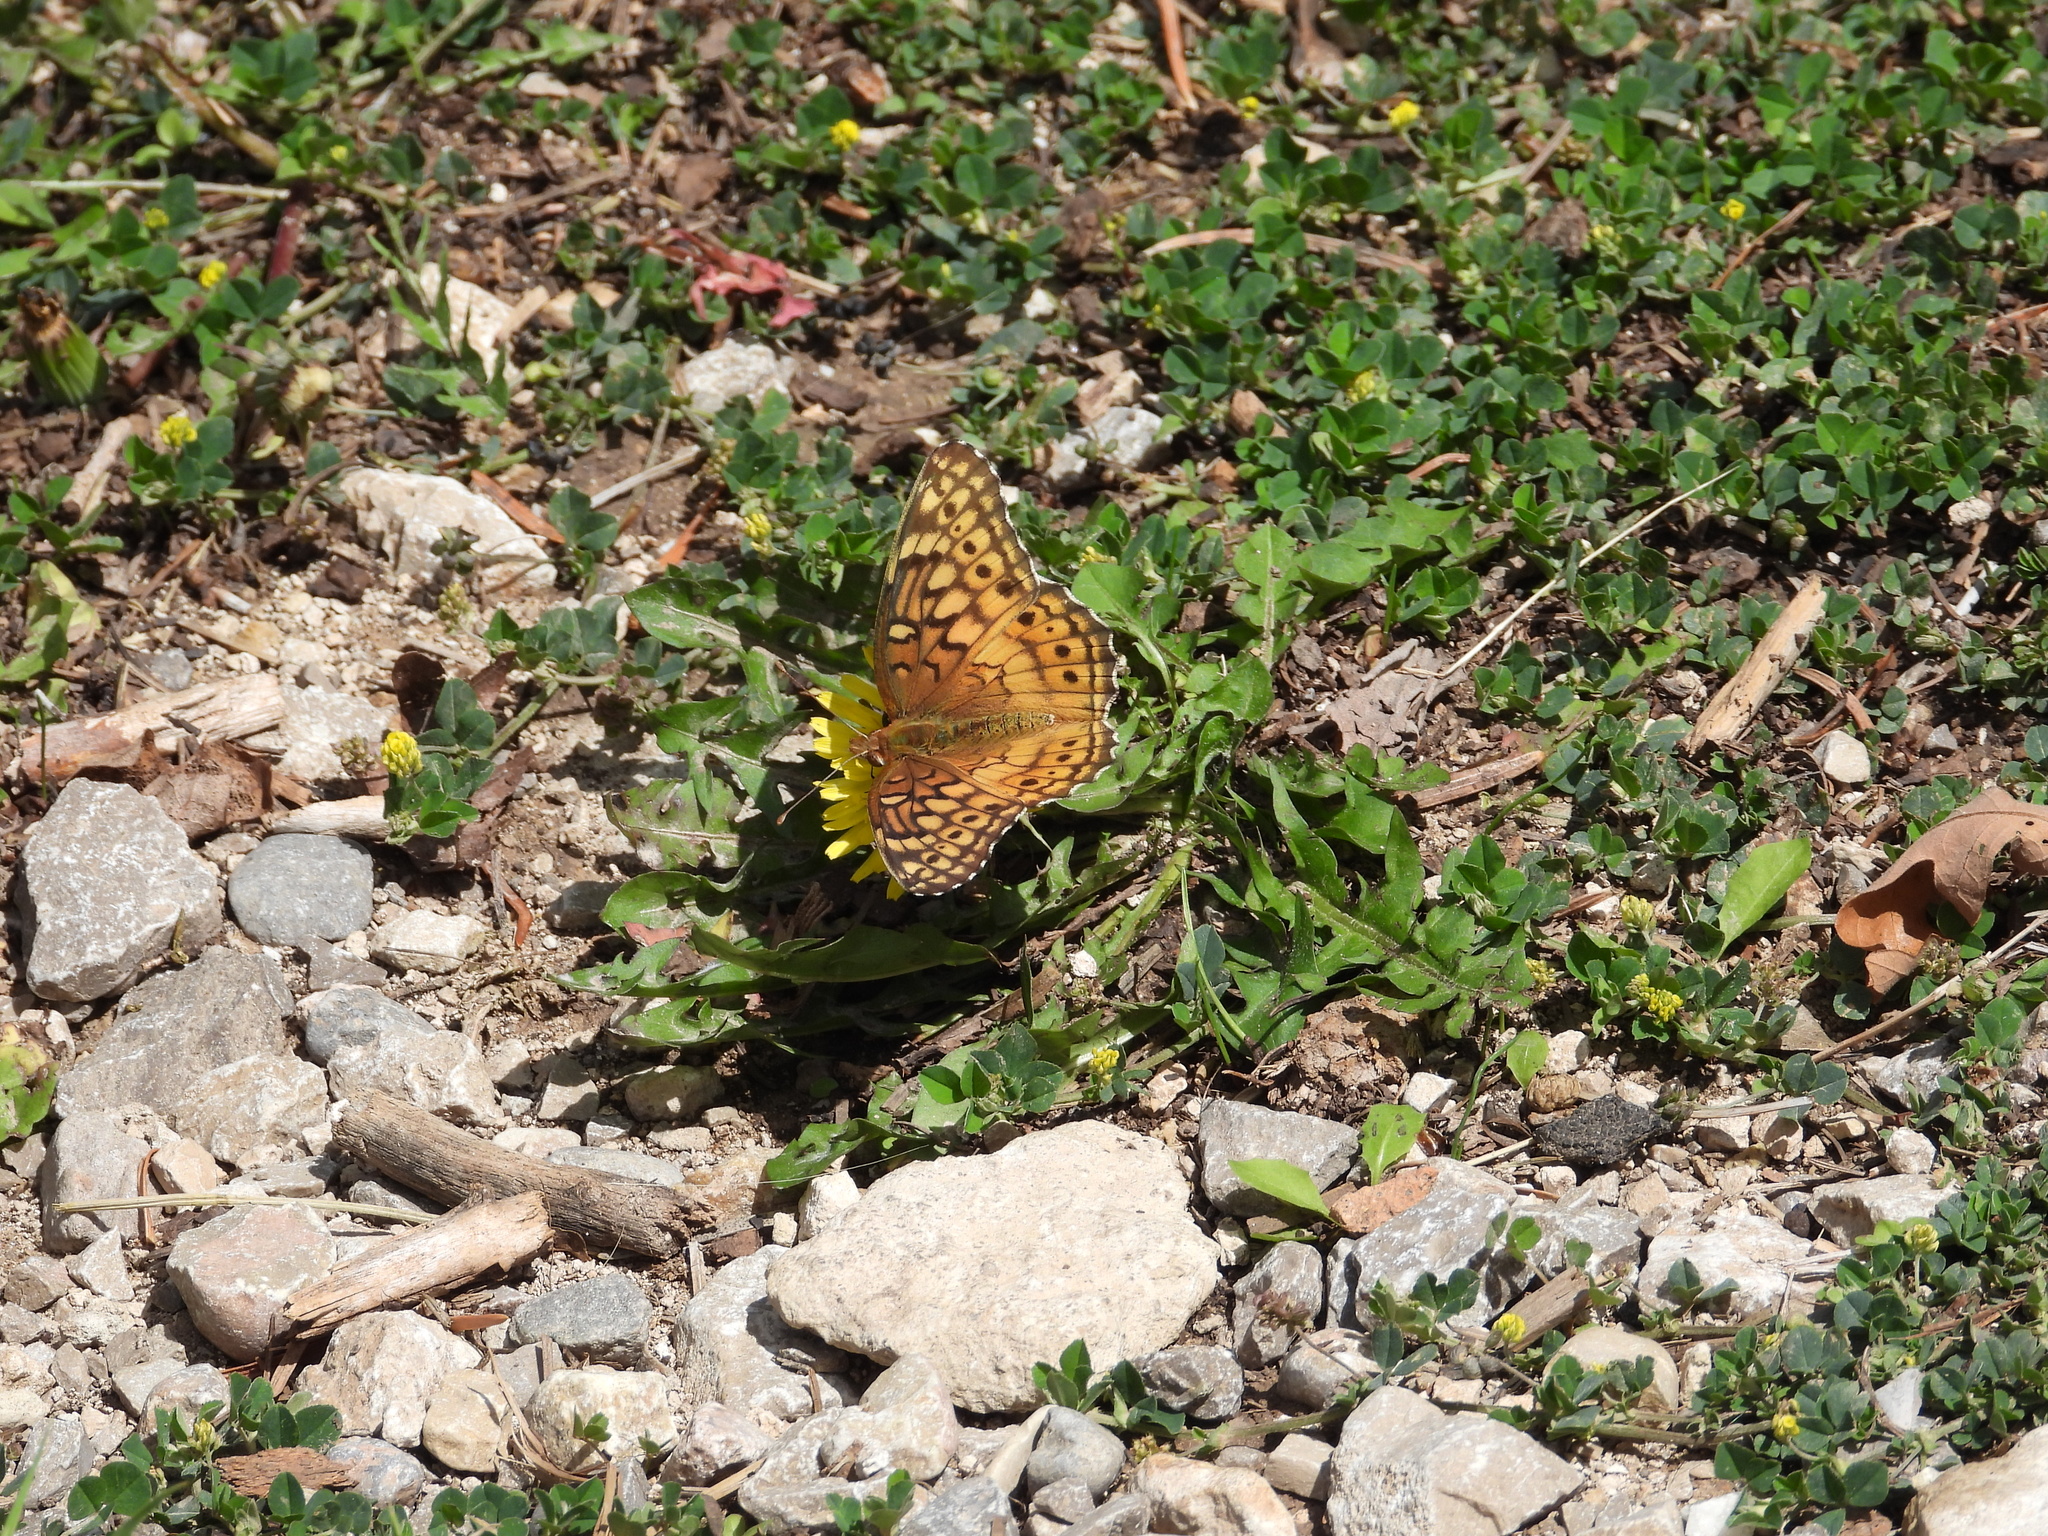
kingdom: Animalia
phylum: Arthropoda
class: Insecta
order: Lepidoptera
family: Nymphalidae
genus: Euptoieta
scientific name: Euptoieta claudia
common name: Variegated fritillary
